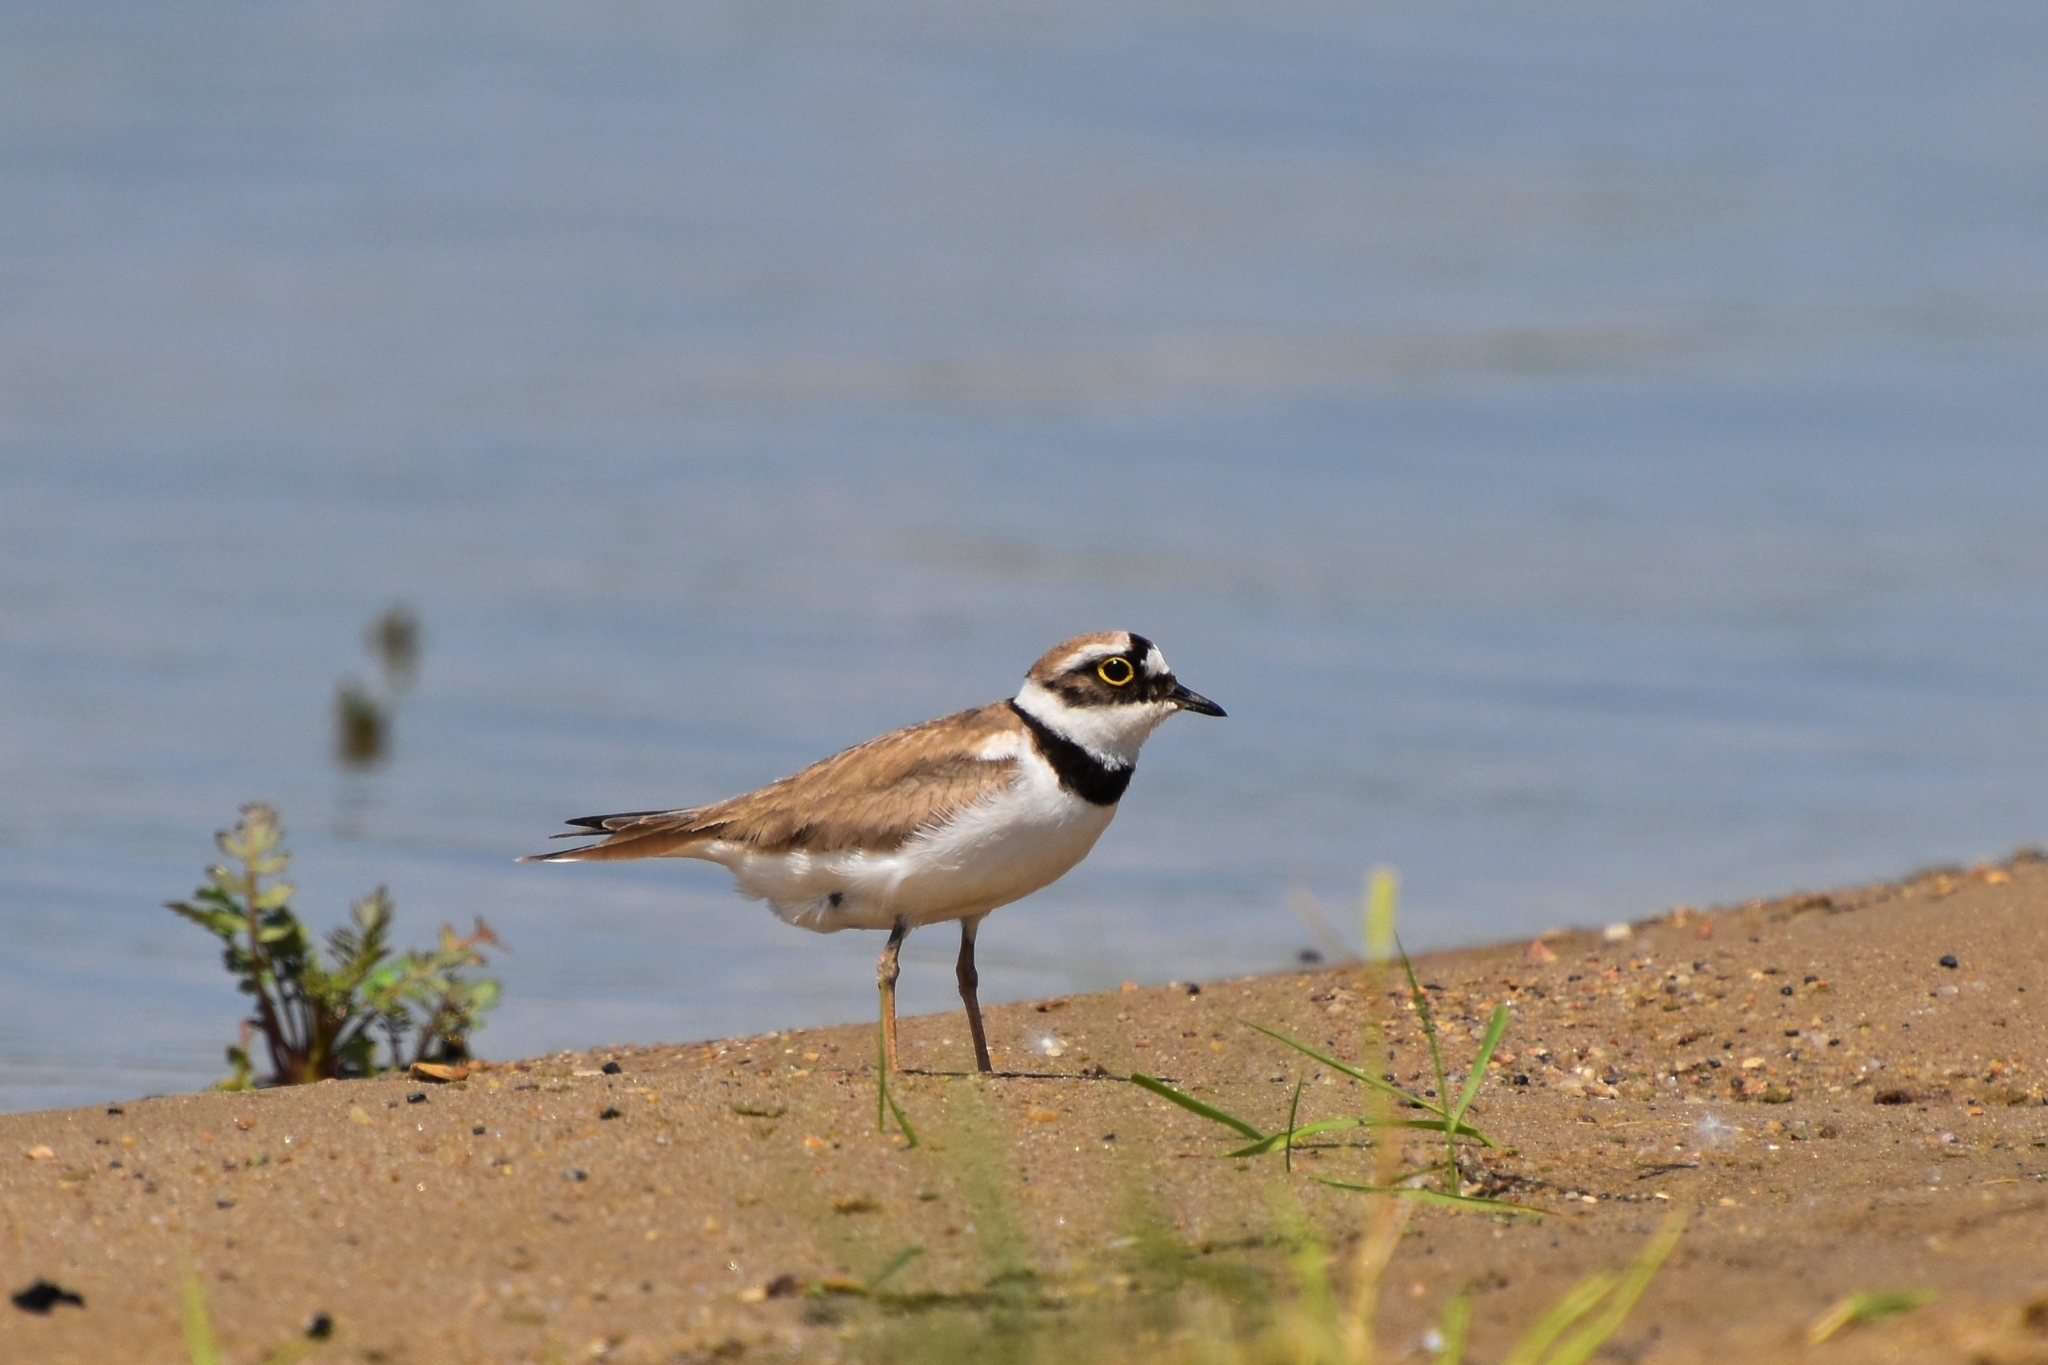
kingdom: Animalia
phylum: Chordata
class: Aves
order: Charadriiformes
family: Charadriidae
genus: Charadrius
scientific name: Charadrius dubius
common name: Little ringed plover
